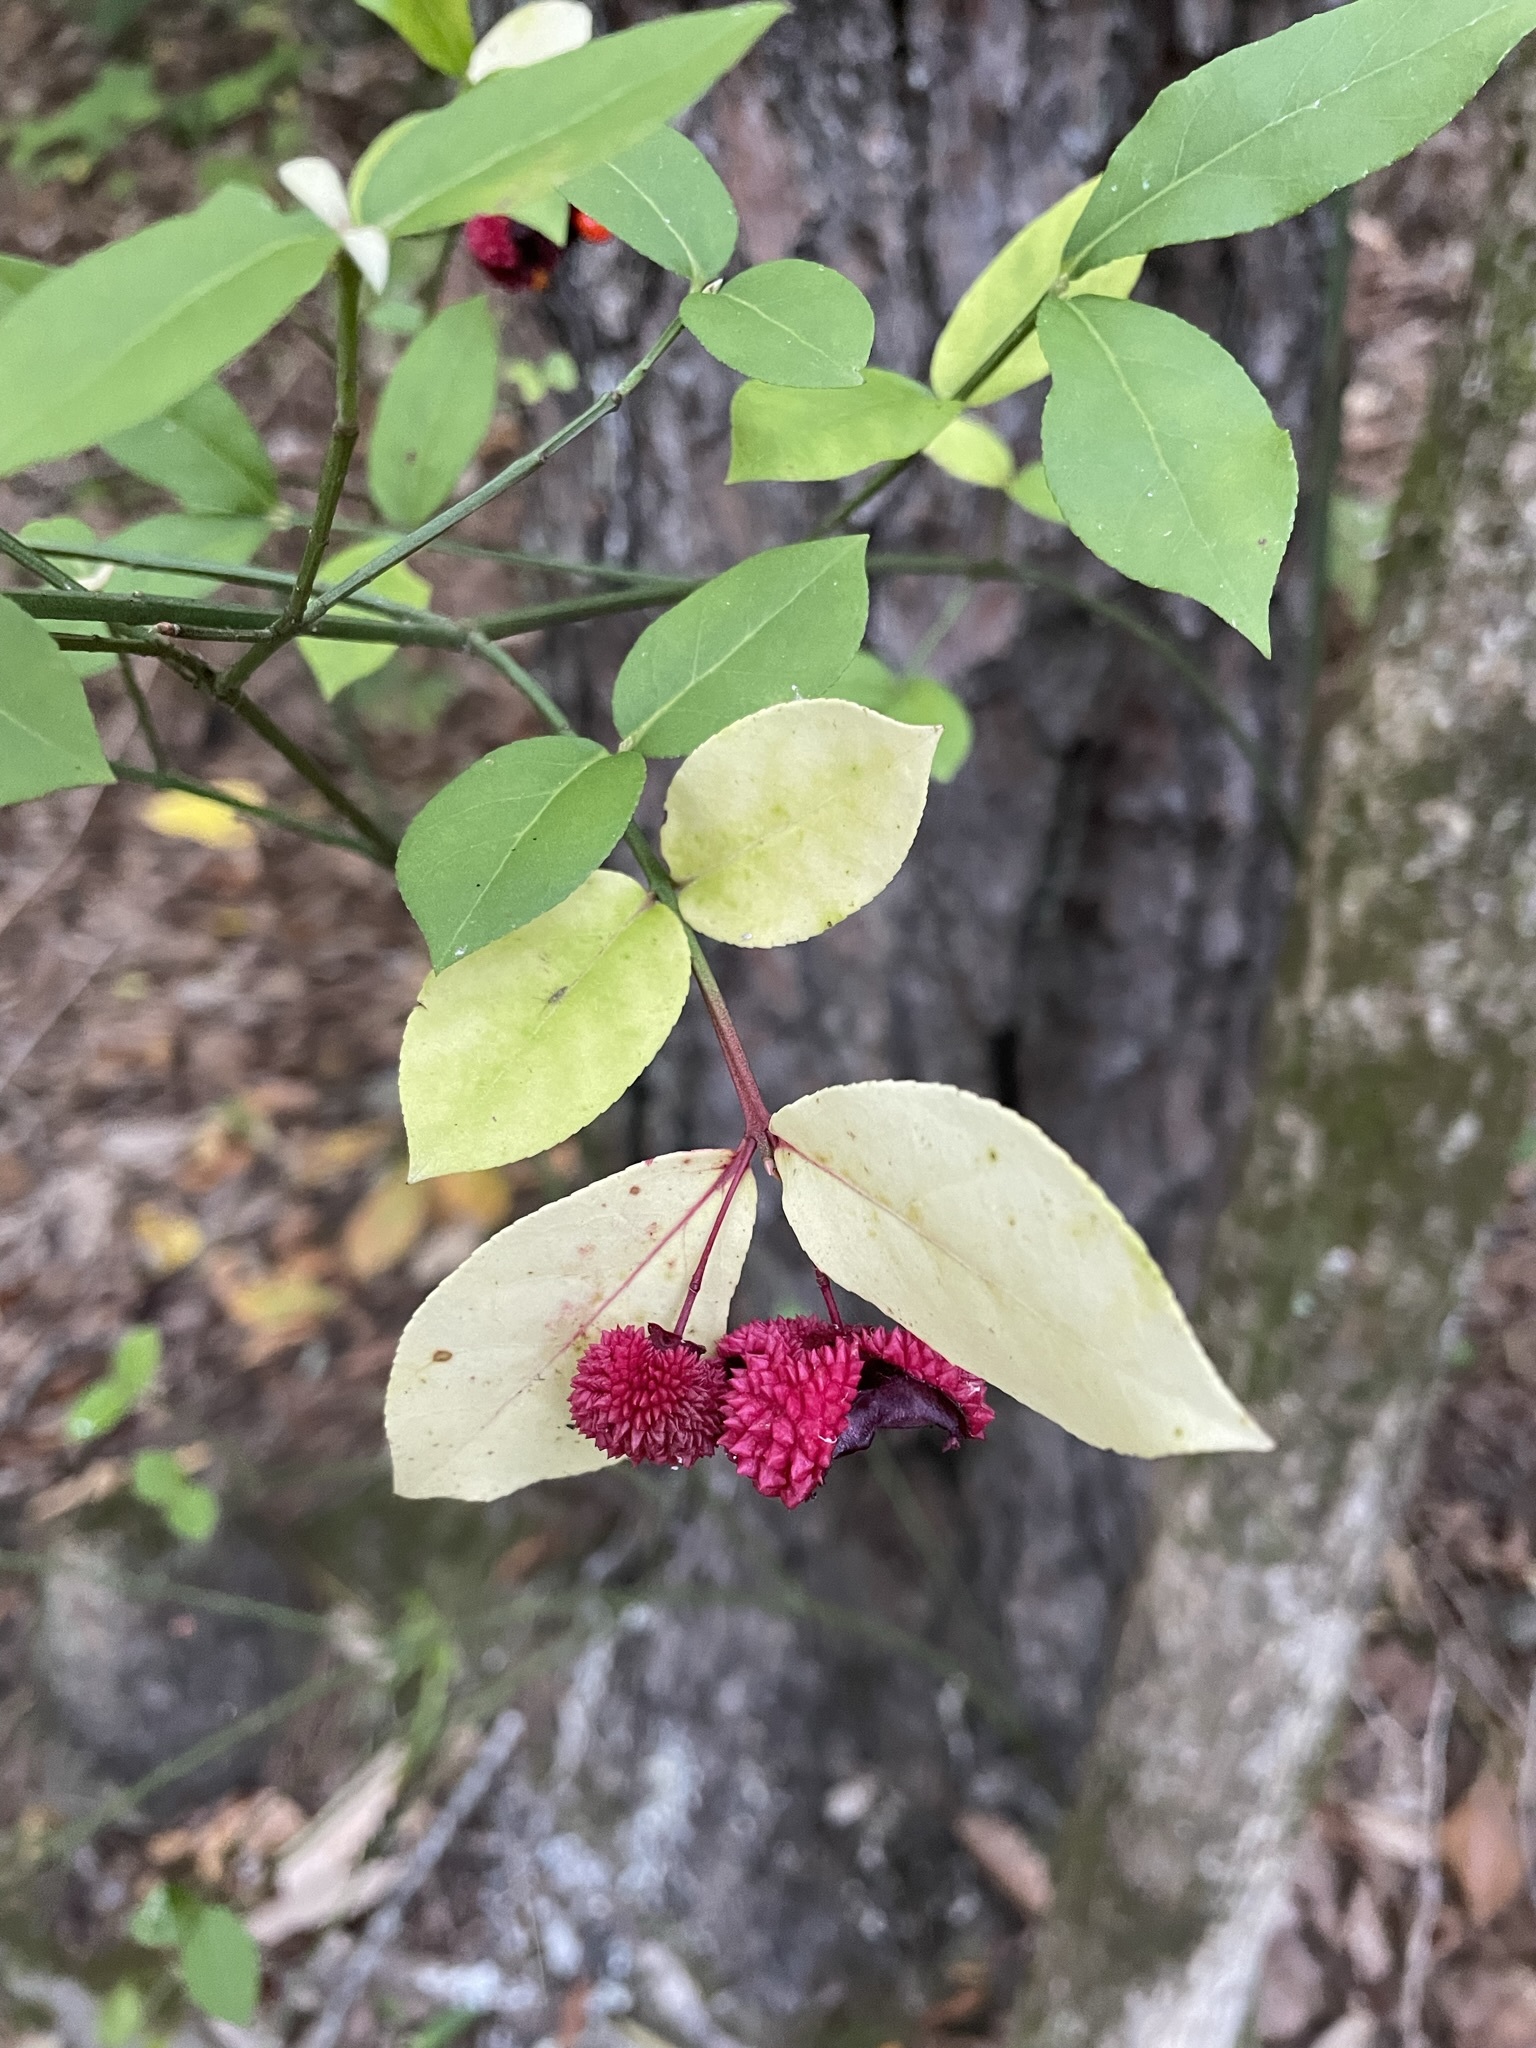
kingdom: Plantae
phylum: Tracheophyta
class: Magnoliopsida
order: Celastrales
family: Celastraceae
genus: Euonymus
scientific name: Euonymus americanus
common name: Bursting-heart
